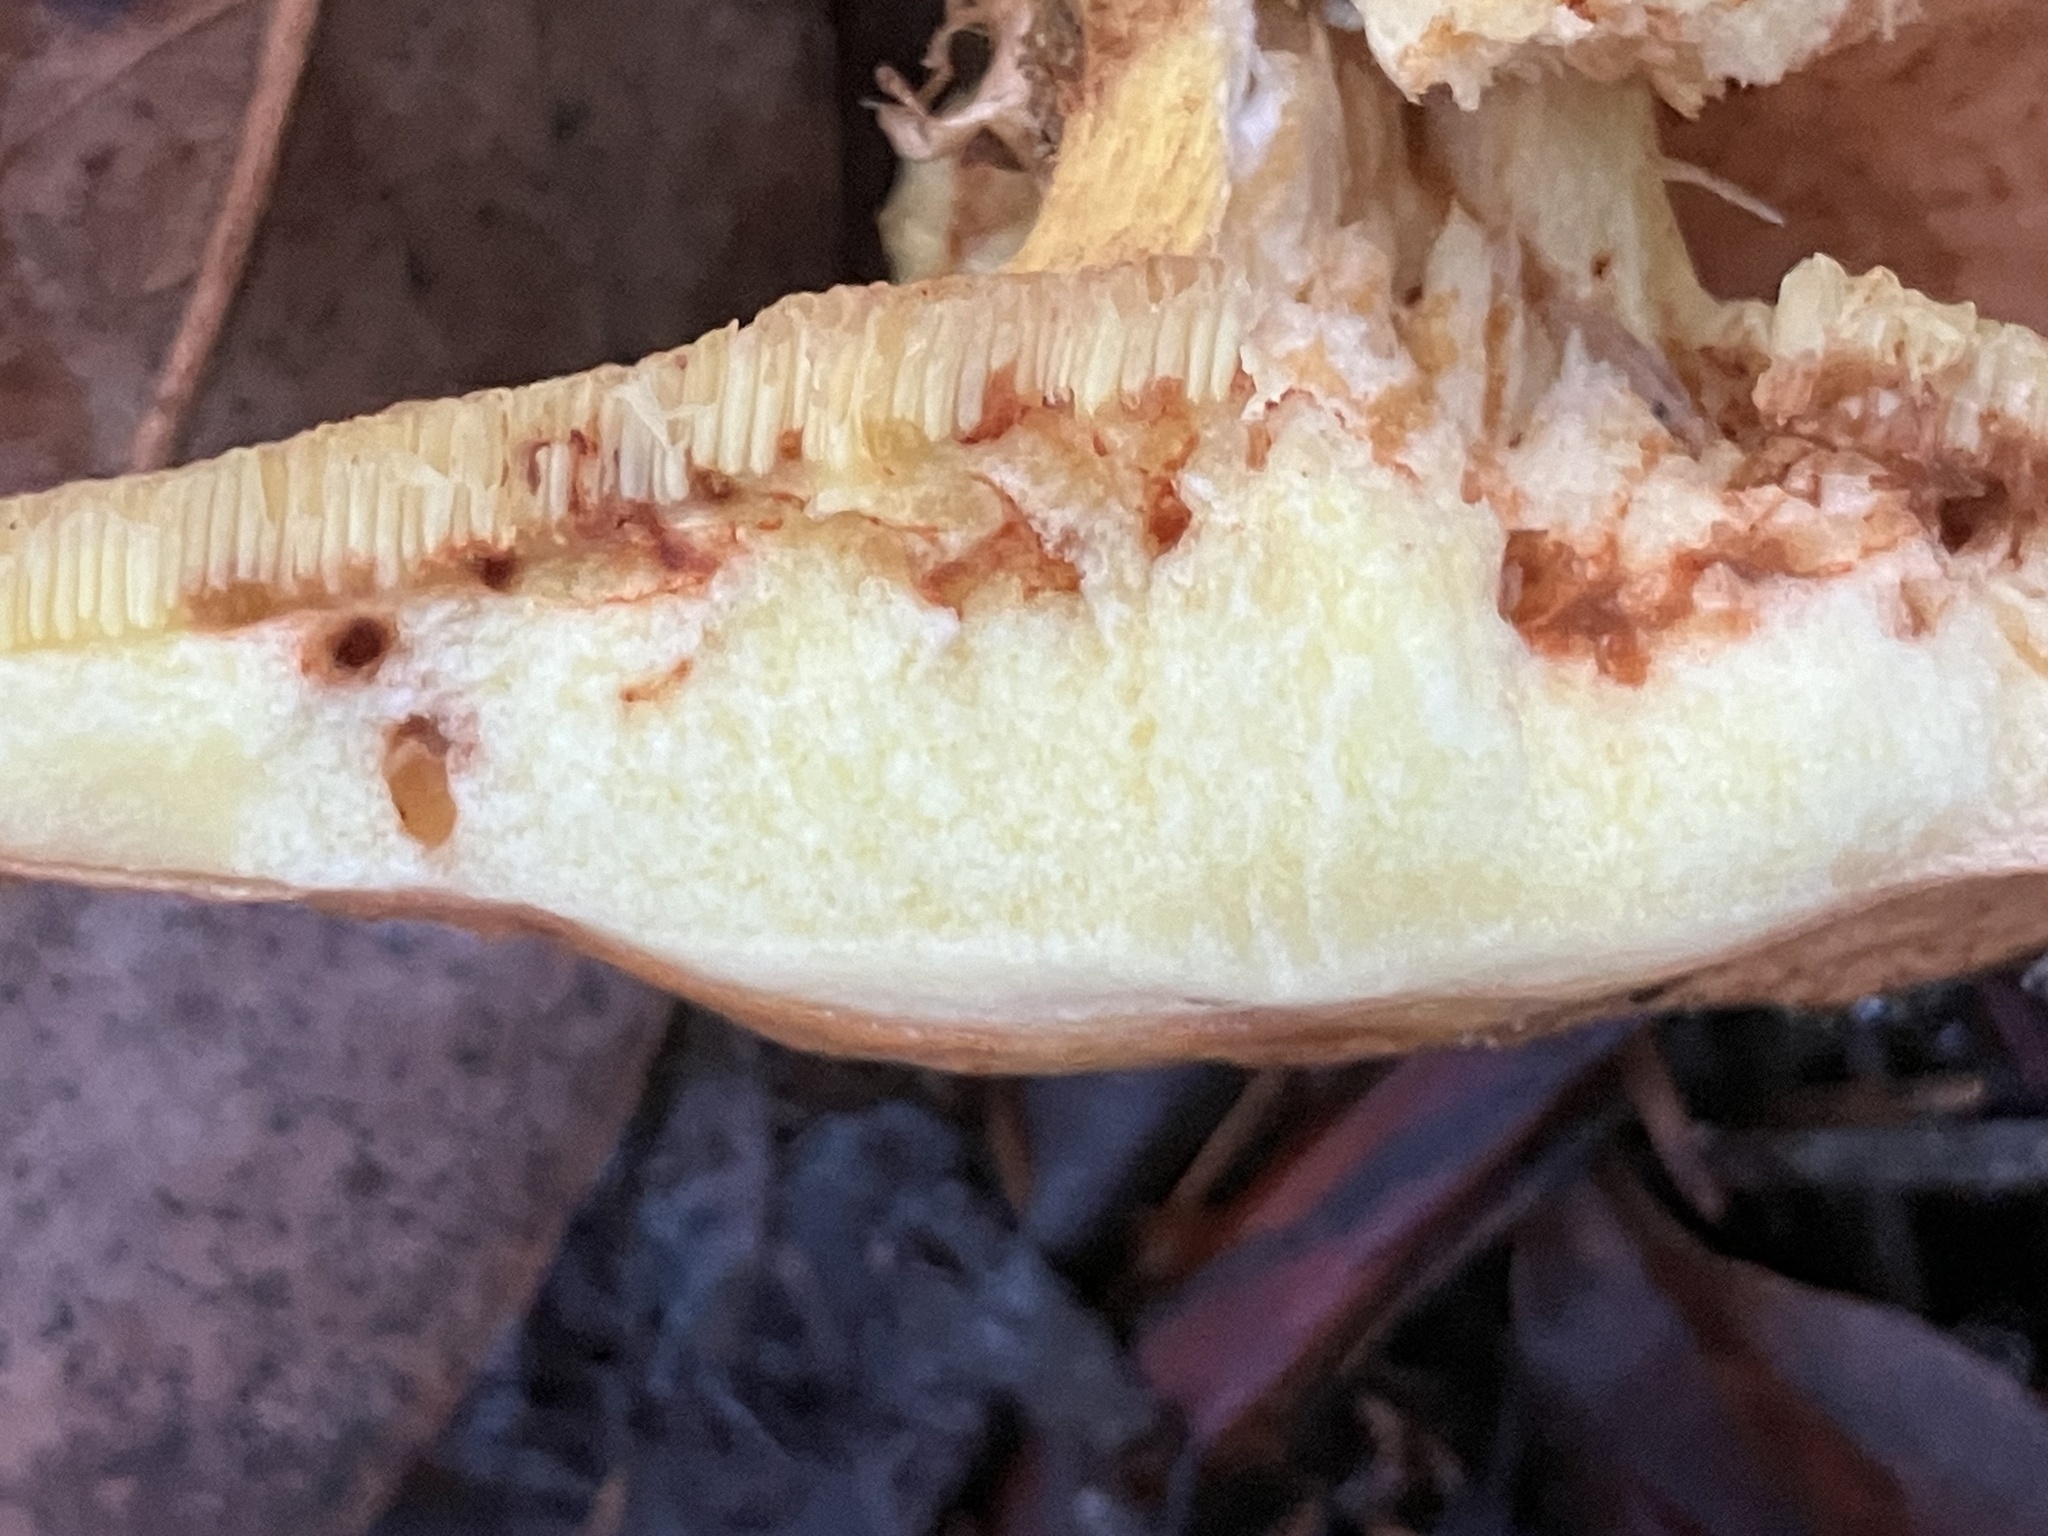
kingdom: Fungi
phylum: Basidiomycota
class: Agaricomycetes
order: Boletales
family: Suillaceae
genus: Suillus
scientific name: Suillus caerulescens
